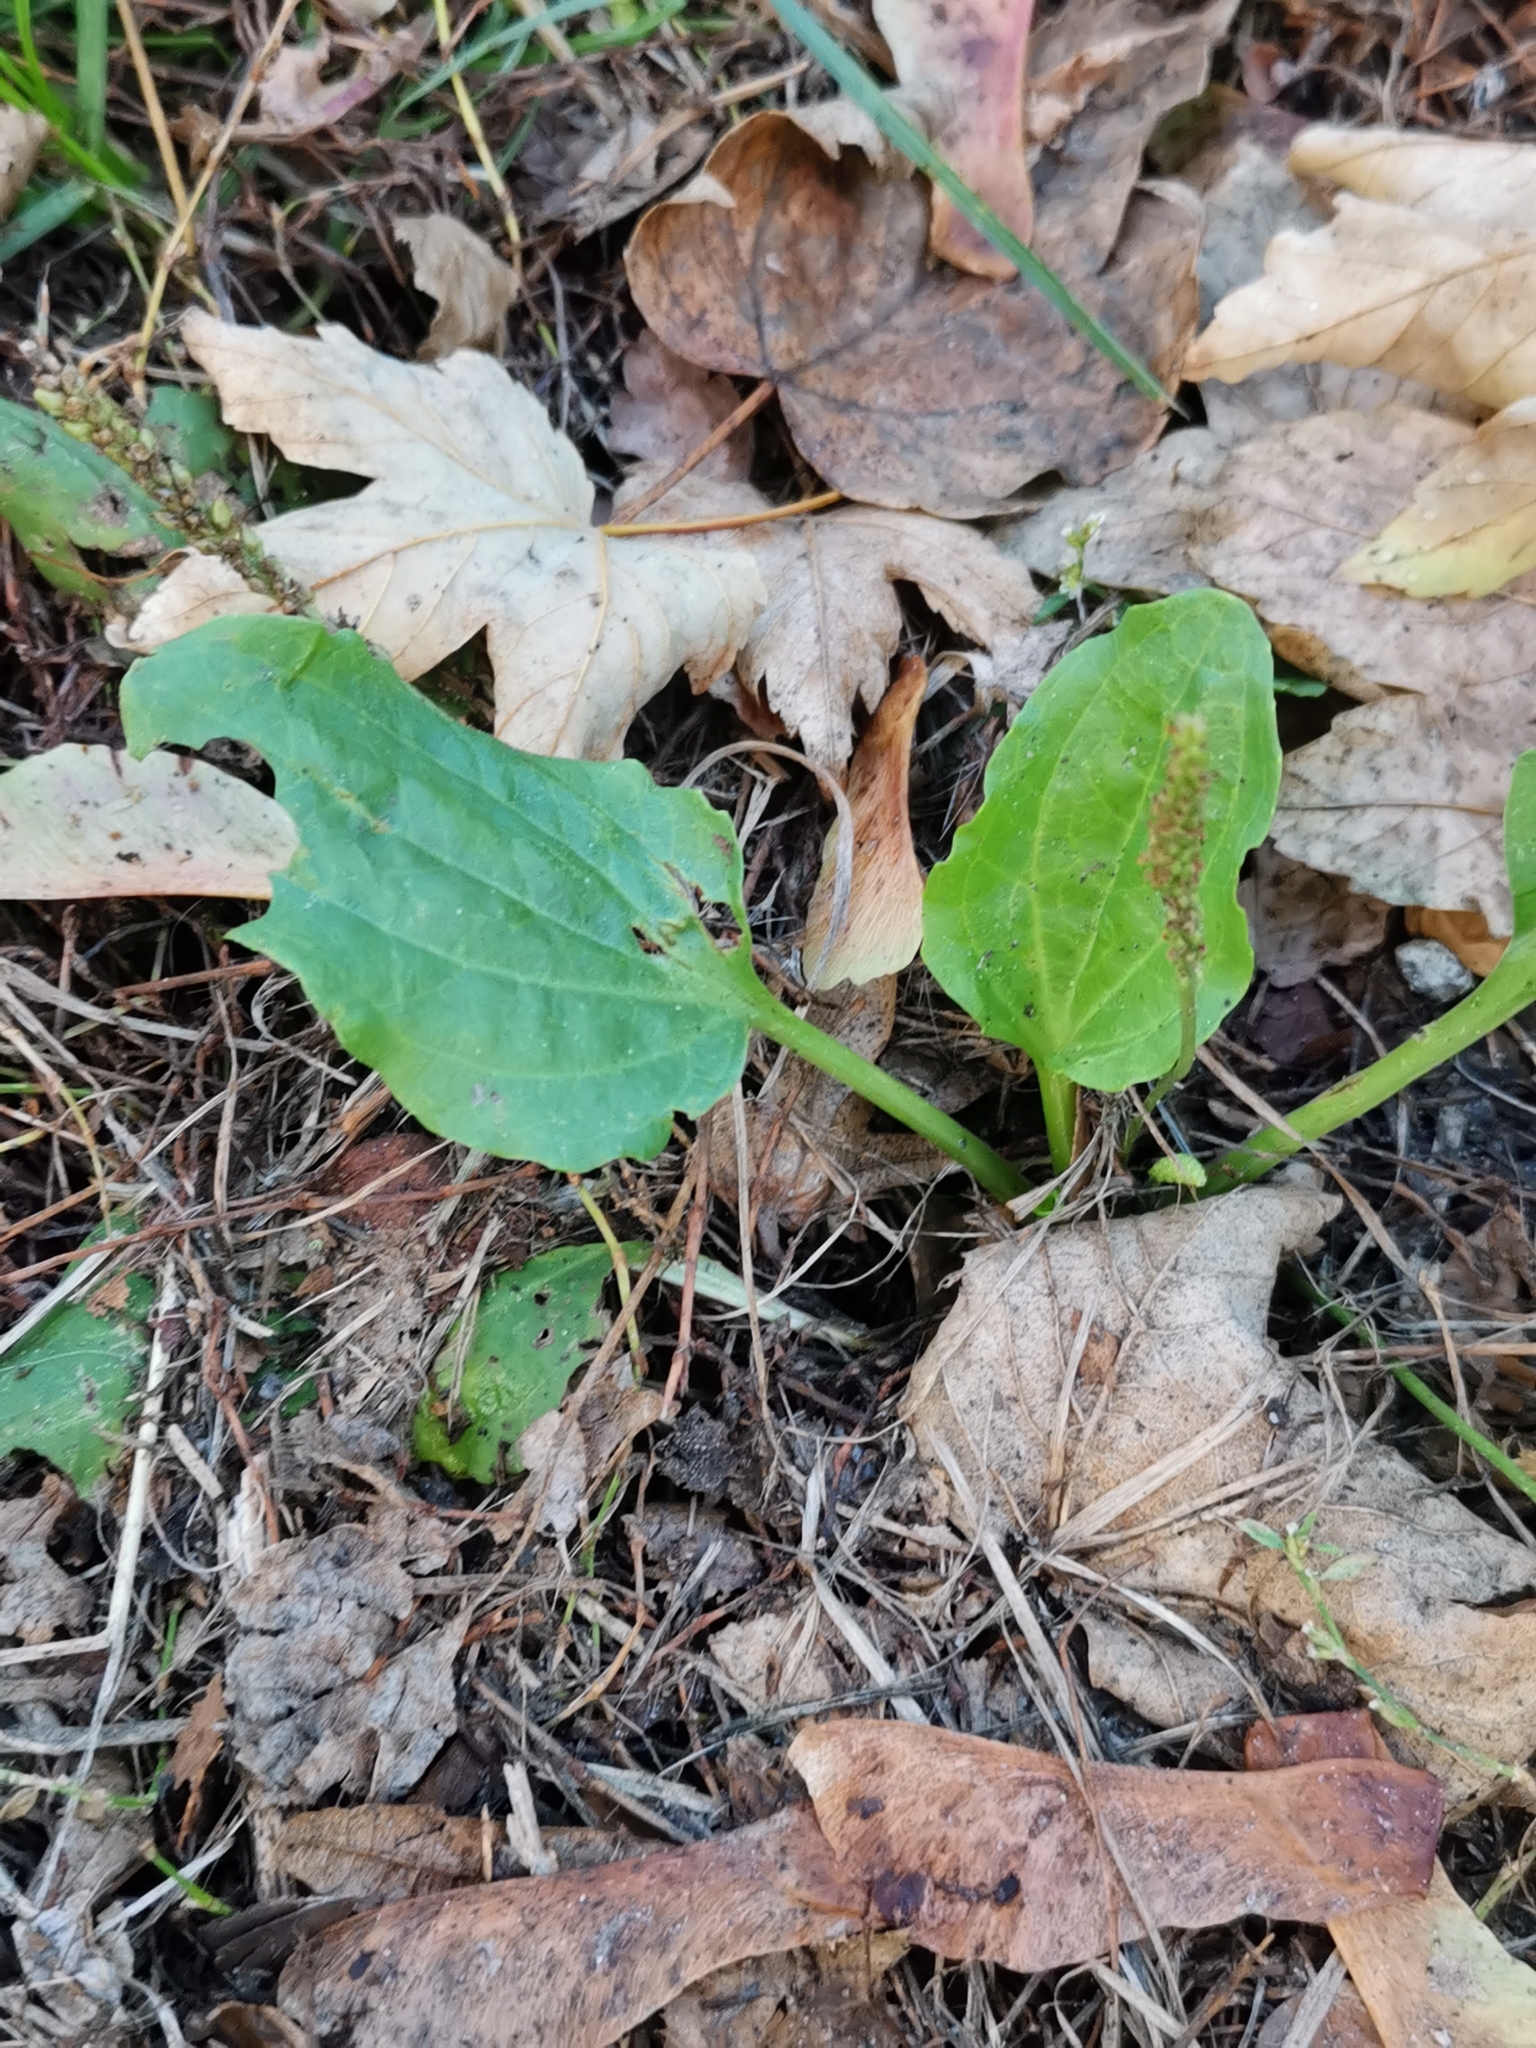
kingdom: Plantae
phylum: Tracheophyta
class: Magnoliopsida
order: Lamiales
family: Plantaginaceae
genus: Plantago
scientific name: Plantago major
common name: Common plantain
